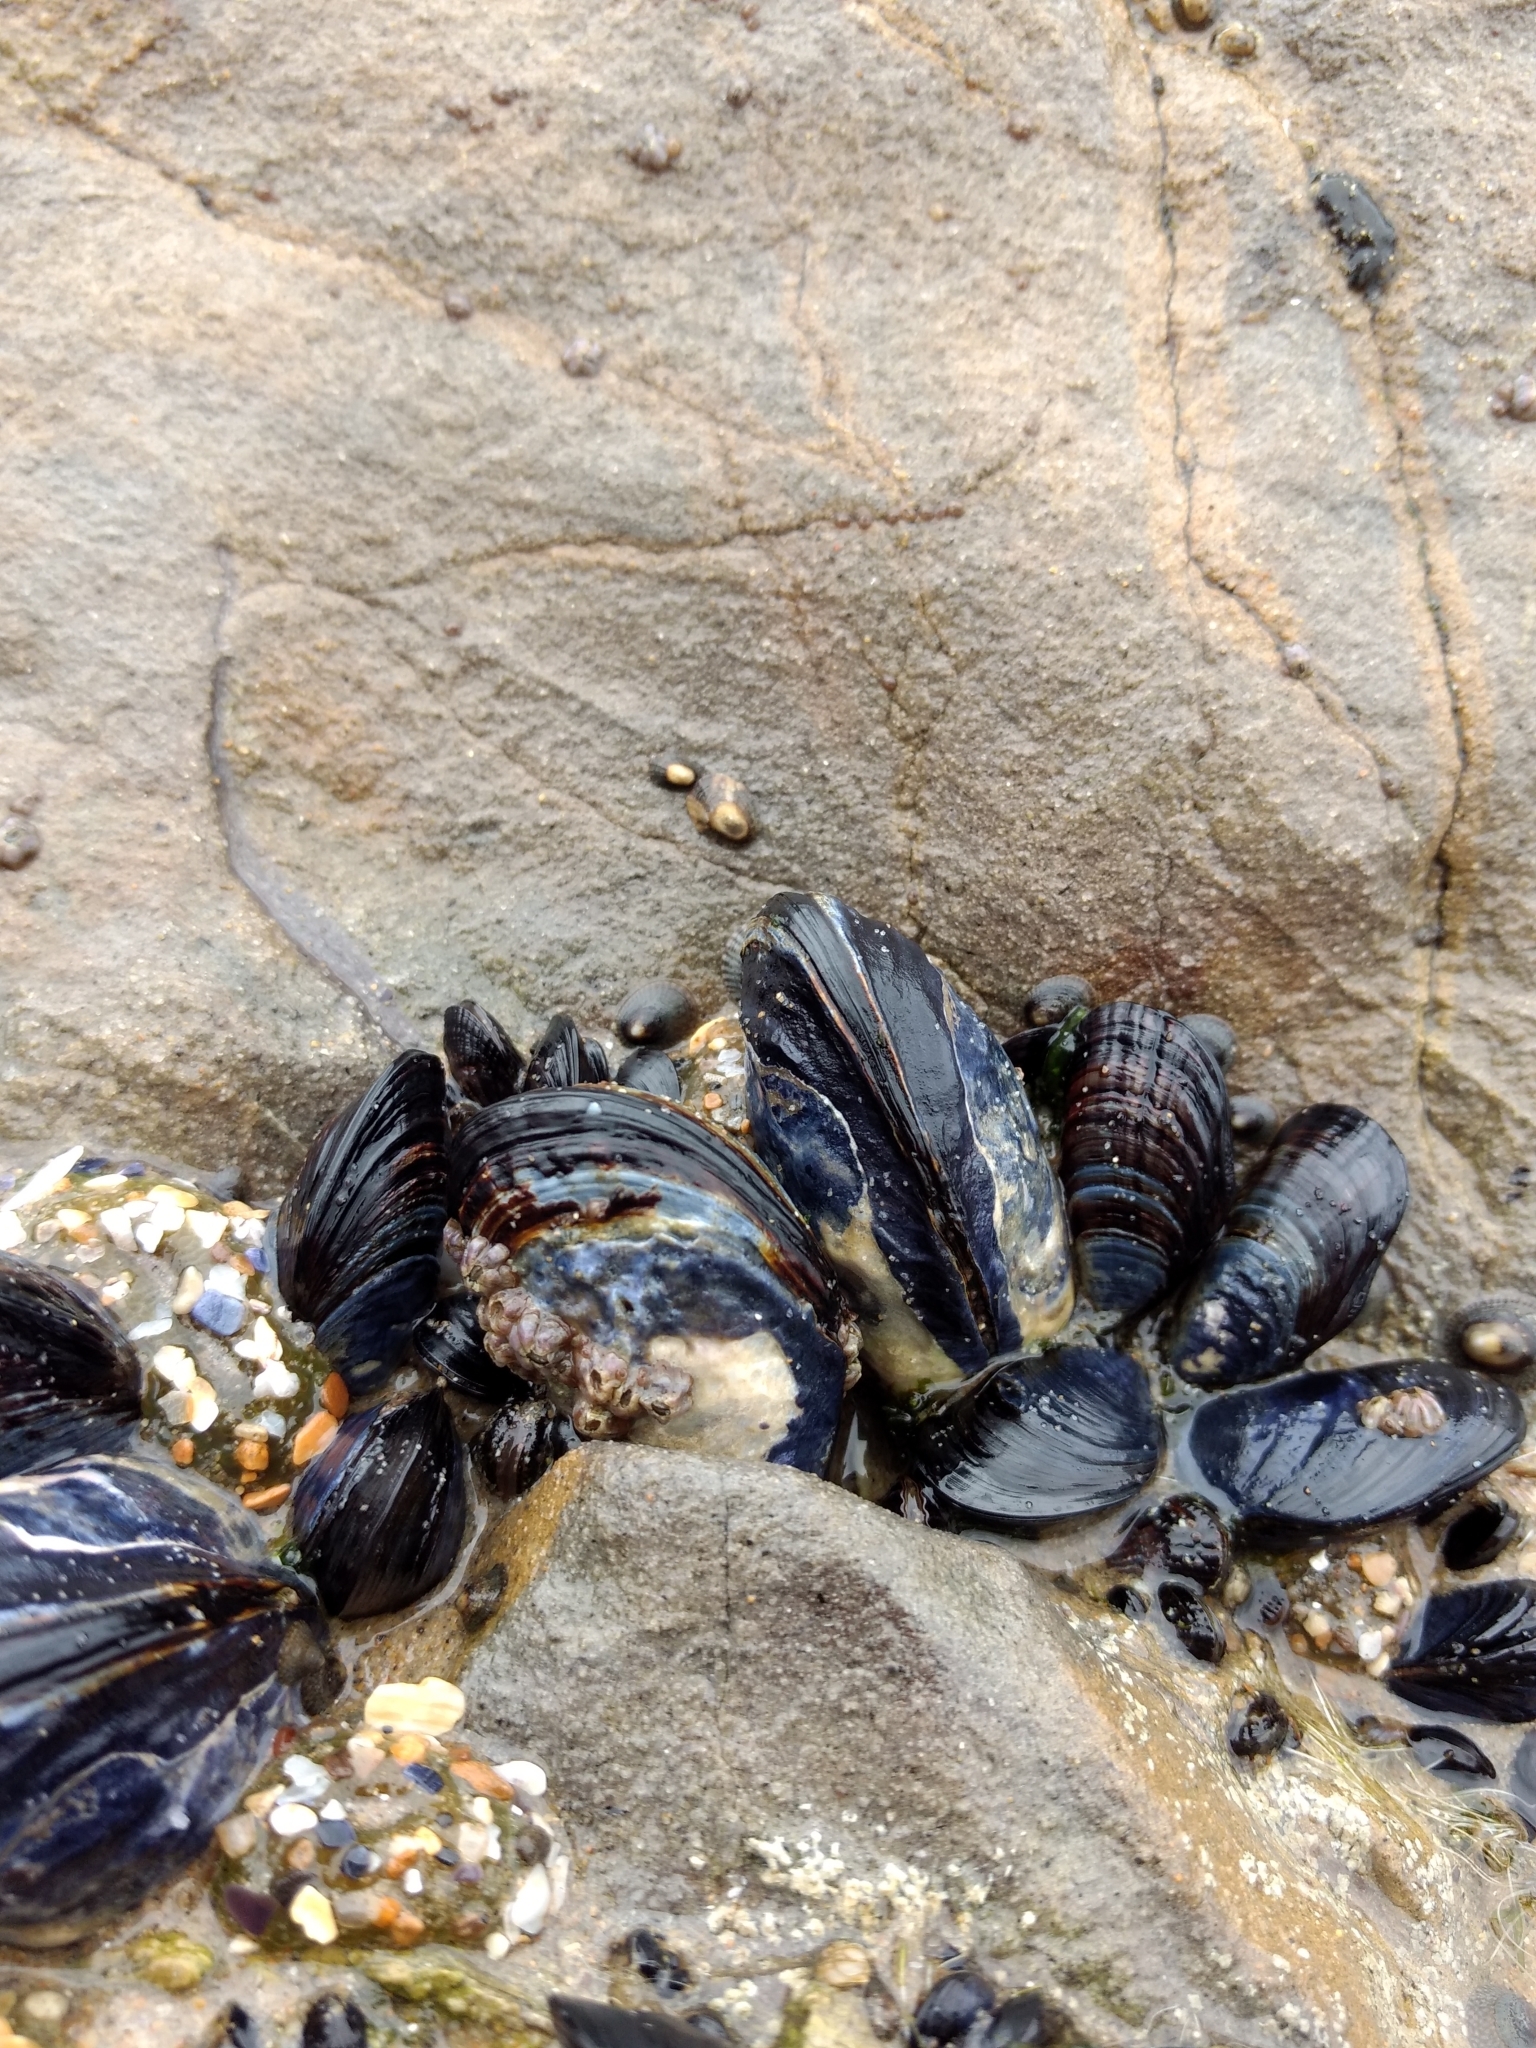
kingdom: Animalia
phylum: Mollusca
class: Bivalvia
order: Mytilida
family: Mytilidae
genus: Mytilus
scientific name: Mytilus californianus
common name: California mussel
